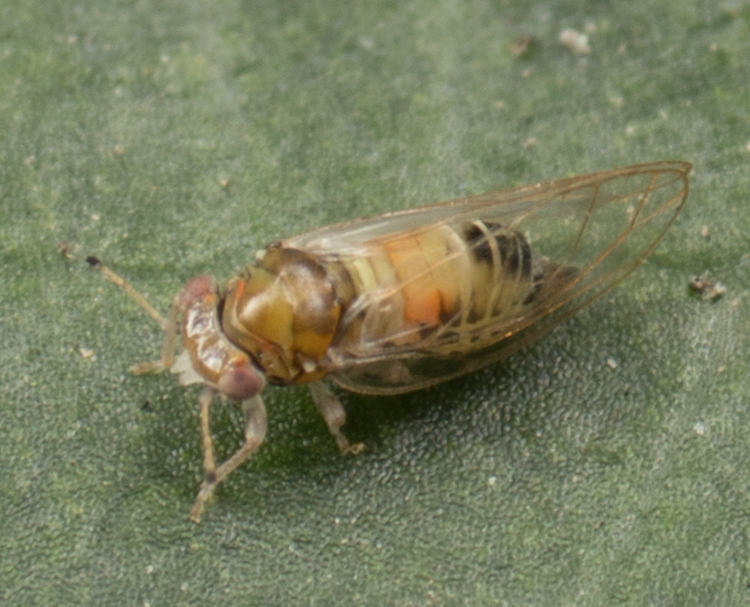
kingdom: Animalia
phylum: Arthropoda
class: Insecta
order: Hemiptera
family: Calophyidae
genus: Calophya
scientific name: Calophya californica
